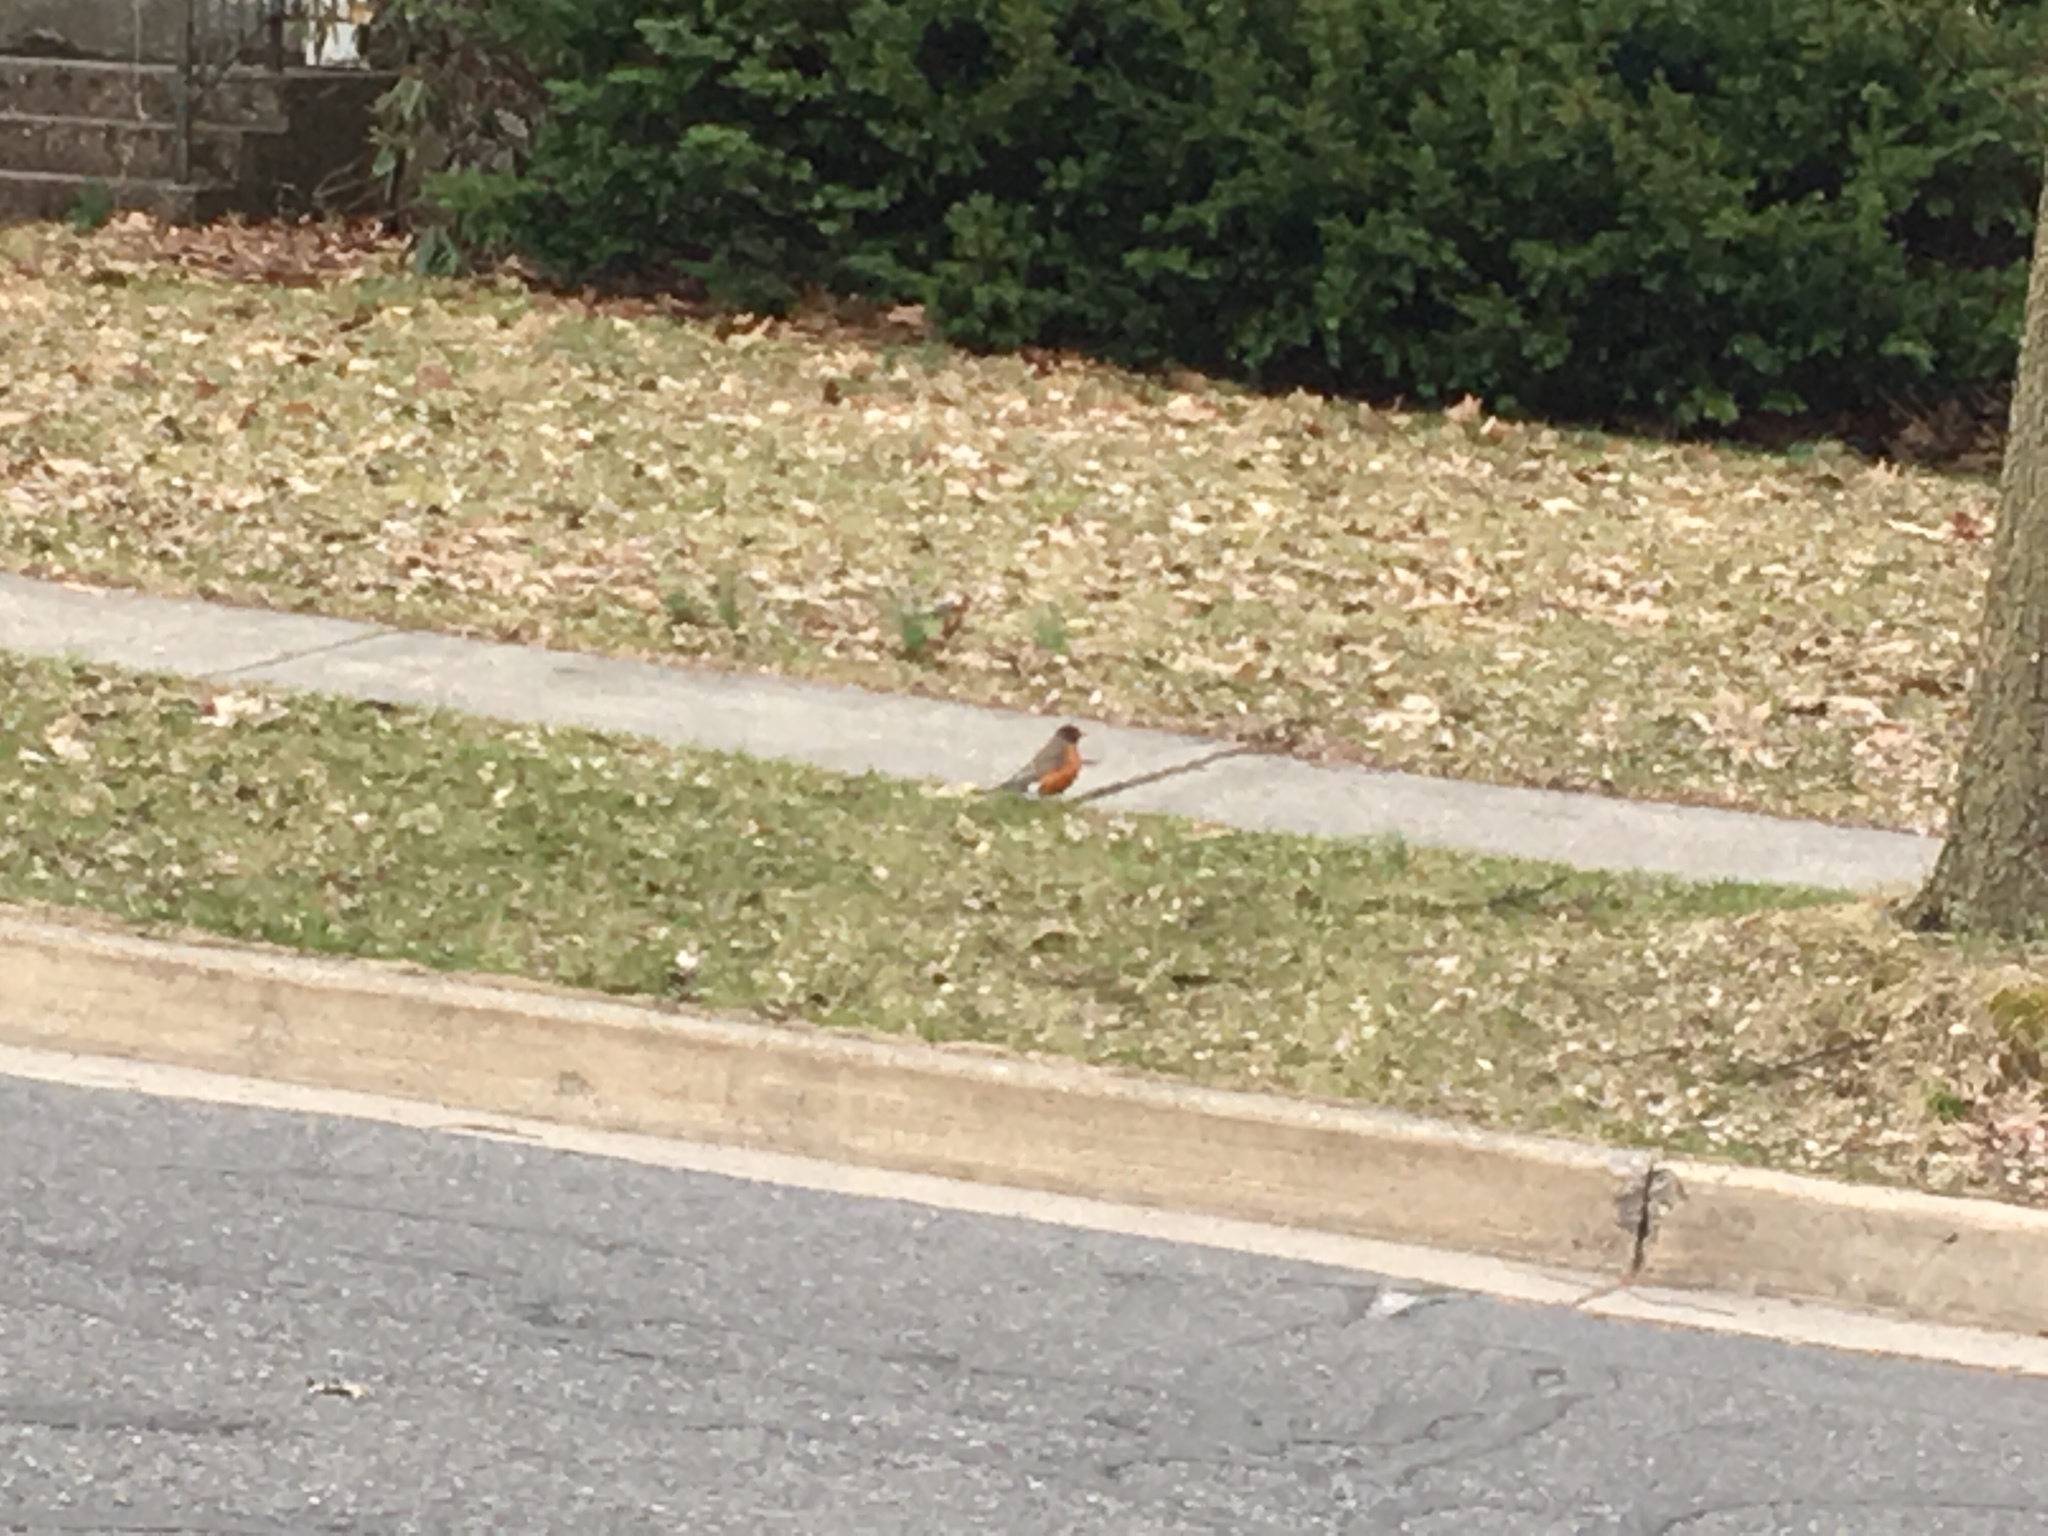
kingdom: Animalia
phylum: Chordata
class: Aves
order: Passeriformes
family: Turdidae
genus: Turdus
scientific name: Turdus migratorius
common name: American robin
